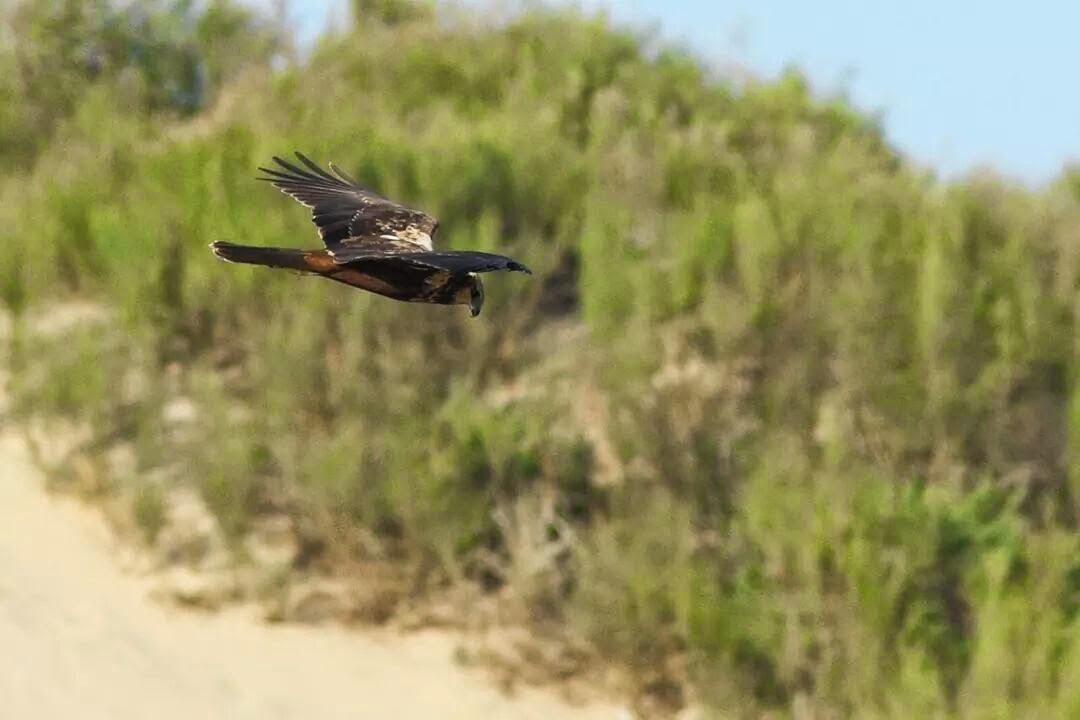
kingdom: Animalia
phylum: Chordata
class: Aves
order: Accipitriformes
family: Accipitridae
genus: Circus
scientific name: Circus aeruginosus
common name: Western marsh harrier
